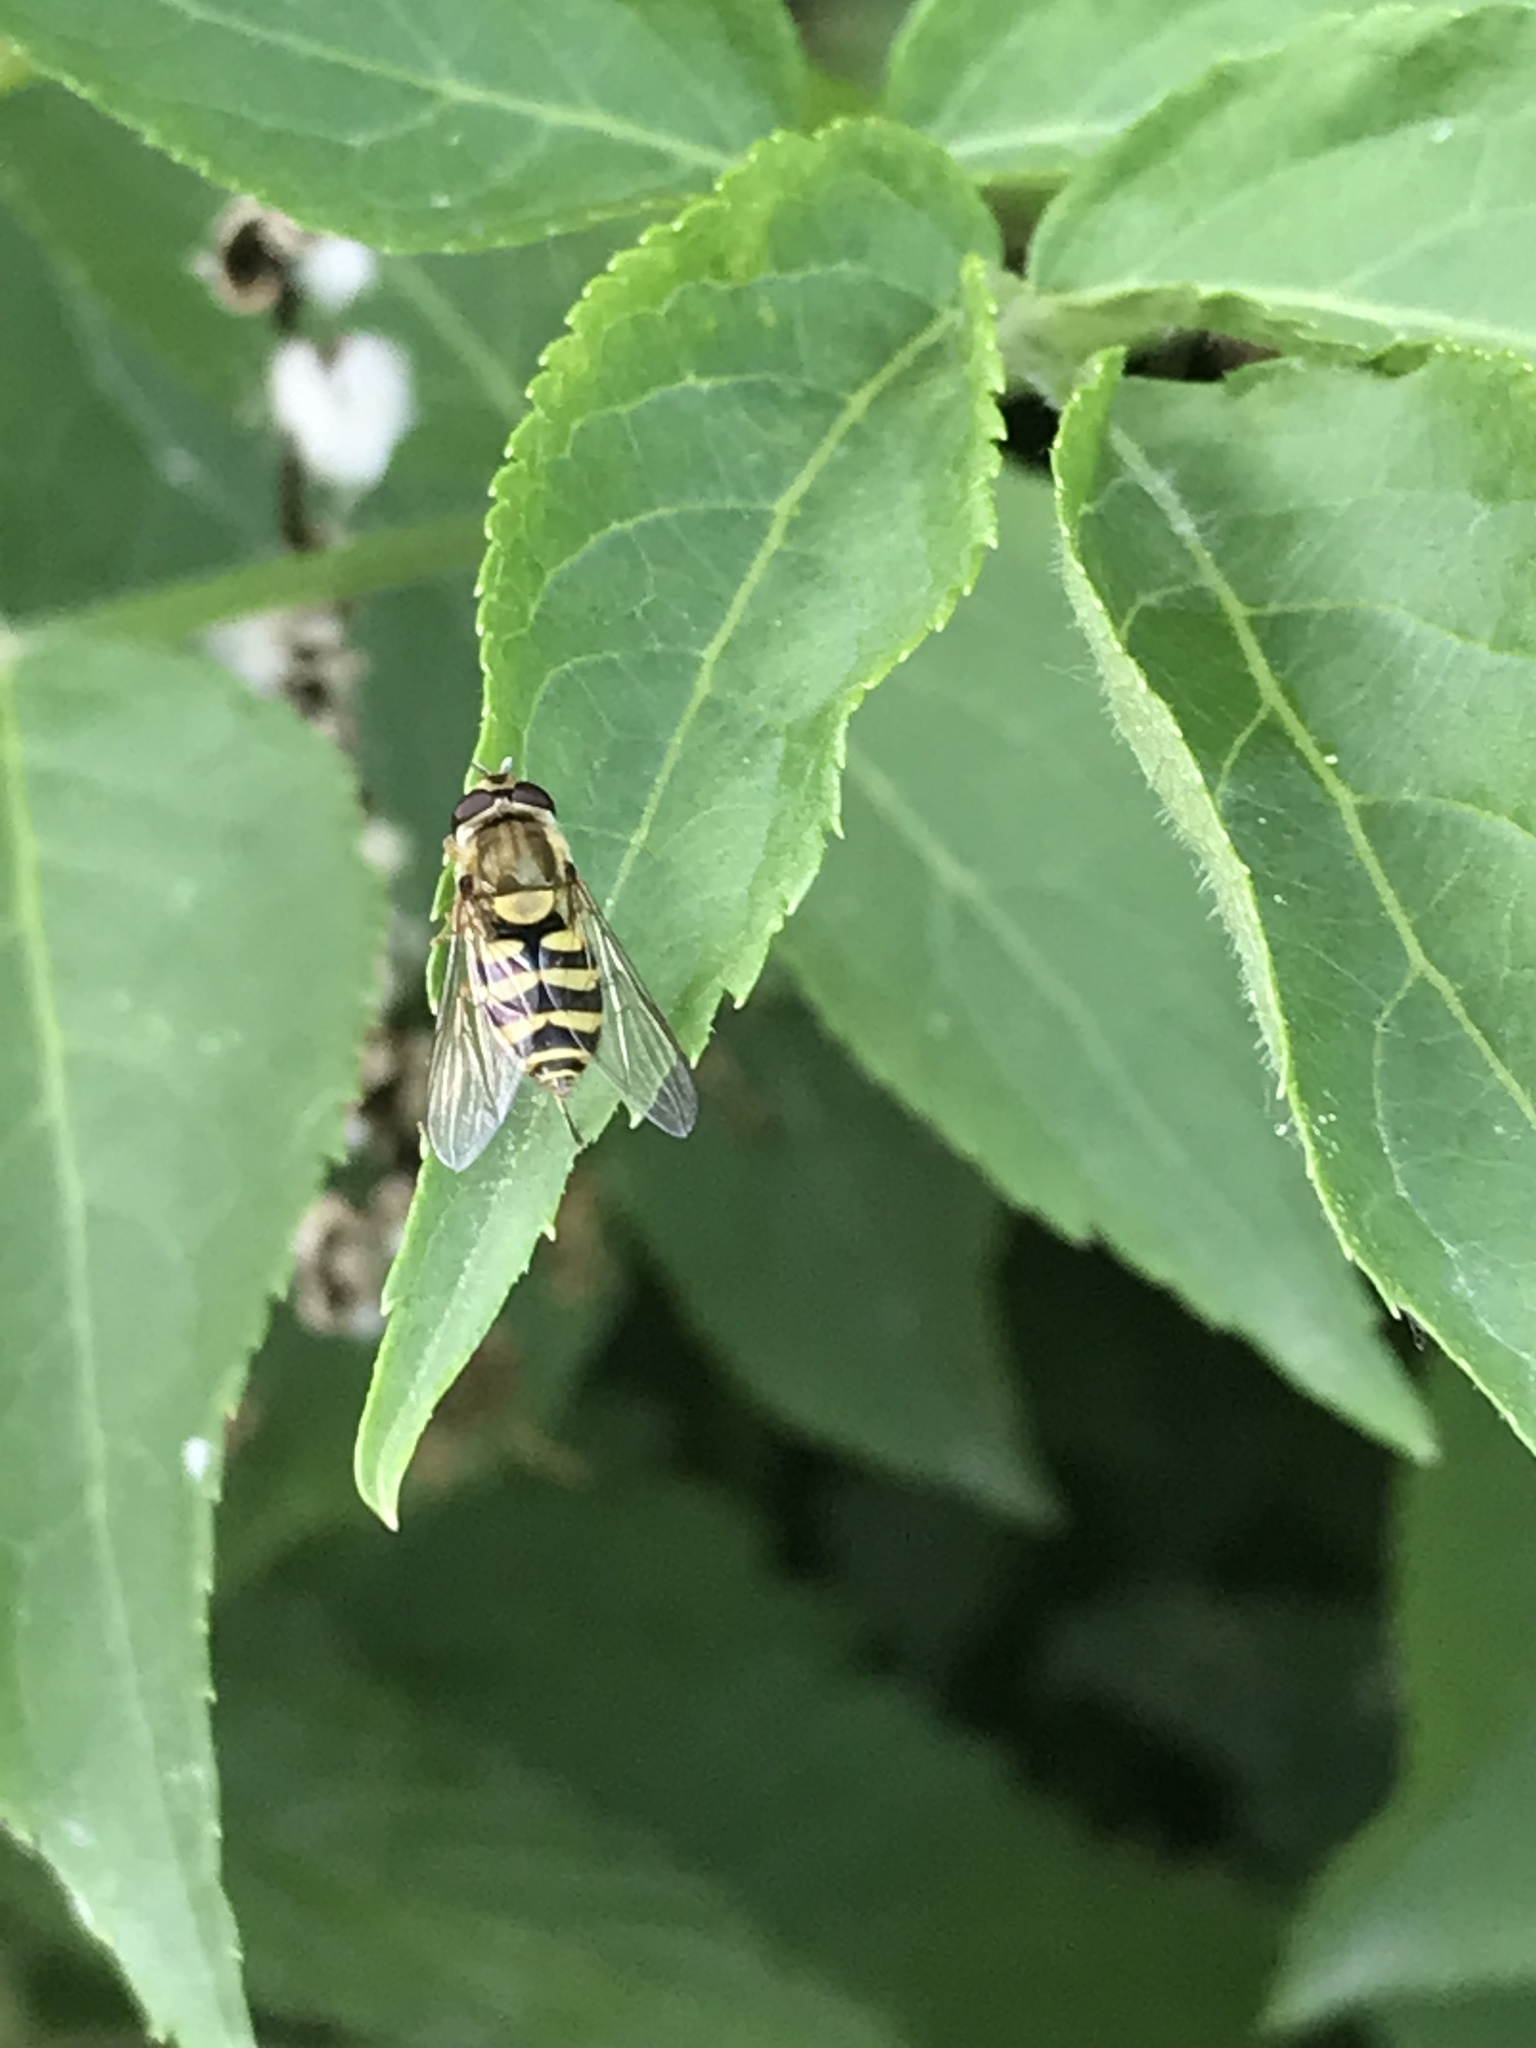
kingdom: Animalia
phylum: Arthropoda
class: Insecta
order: Diptera
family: Syrphidae
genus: Syrphus
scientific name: Syrphus
